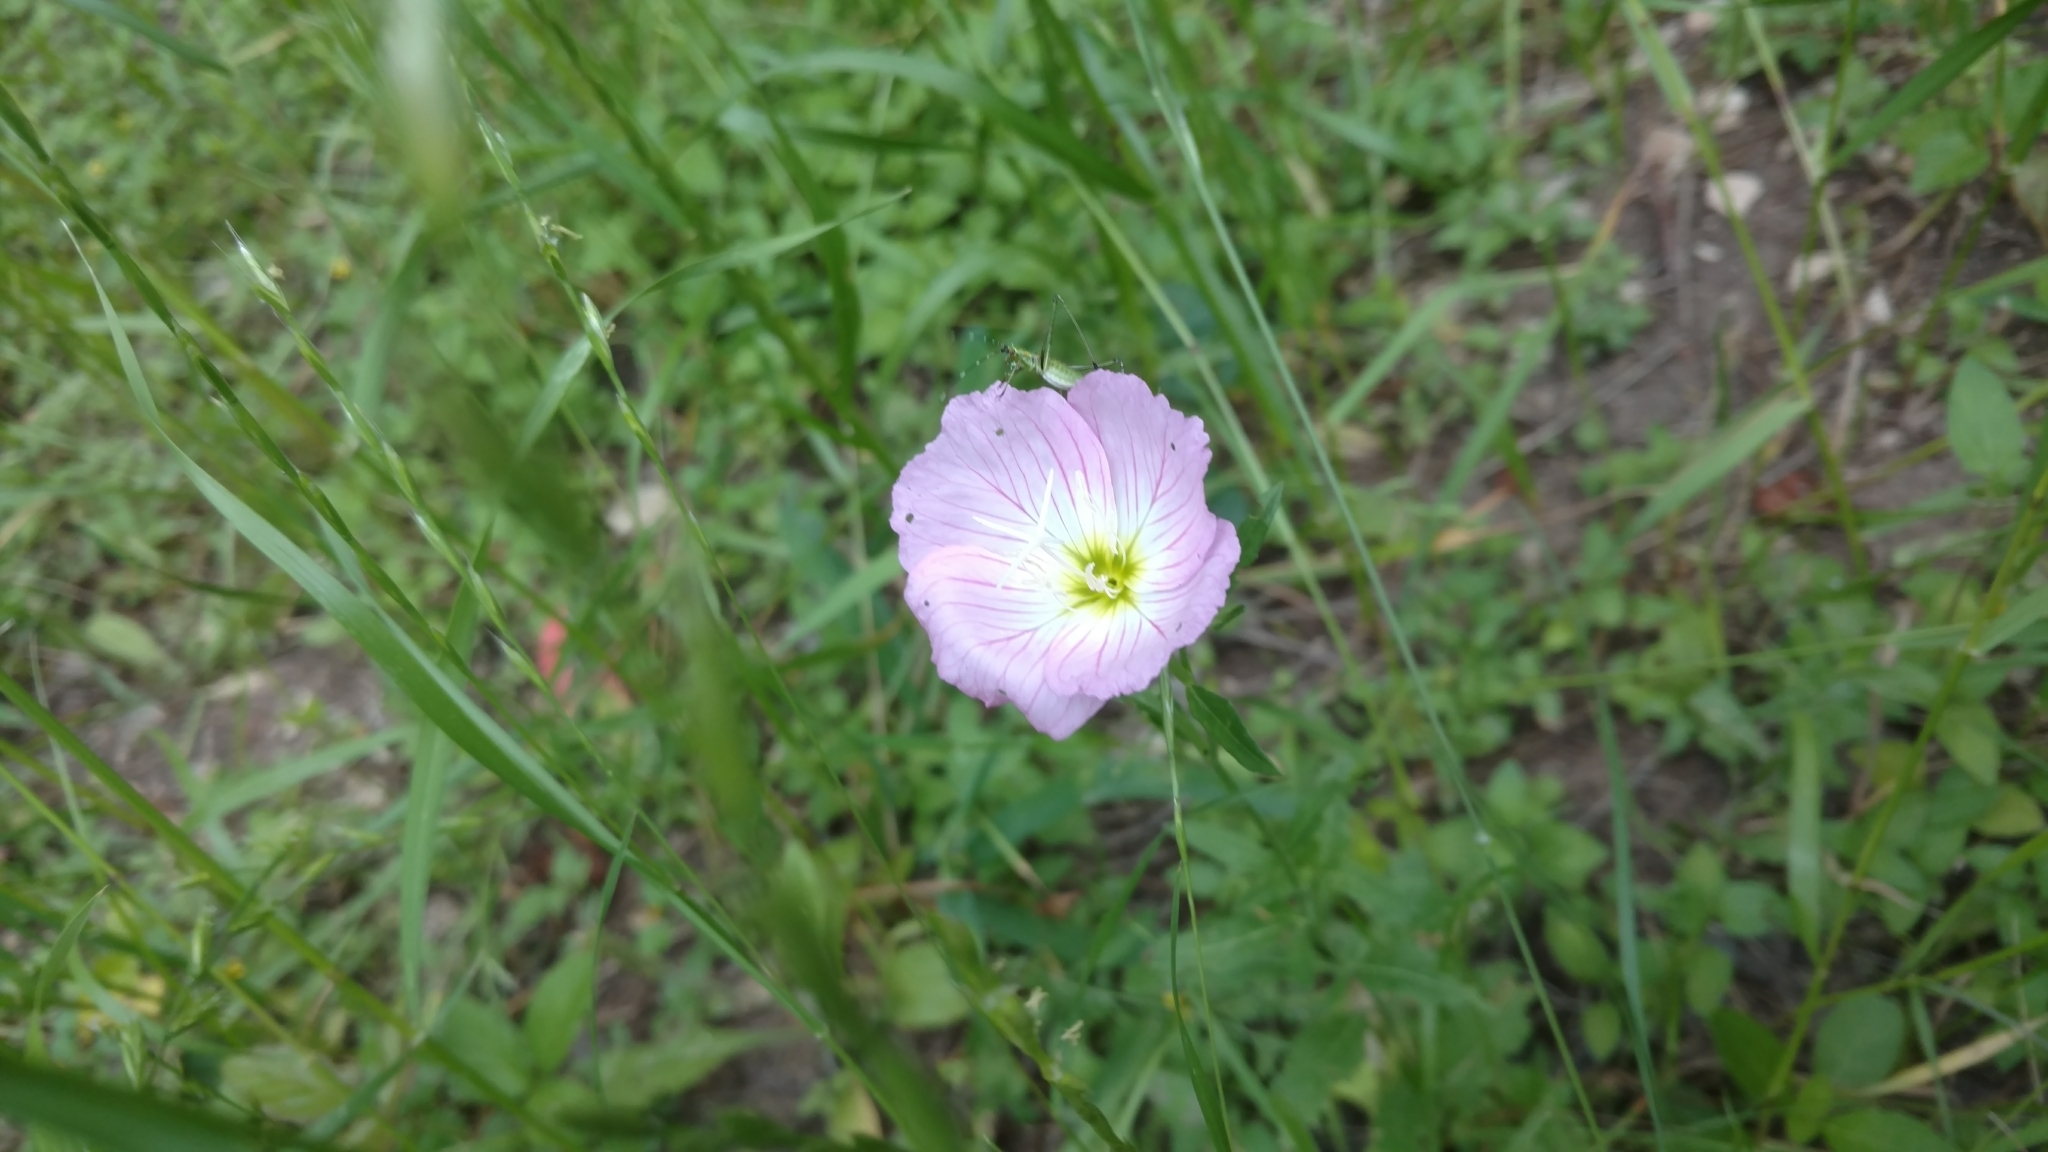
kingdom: Plantae
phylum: Tracheophyta
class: Magnoliopsida
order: Myrtales
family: Onagraceae
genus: Oenothera
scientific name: Oenothera speciosa
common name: White evening-primrose
